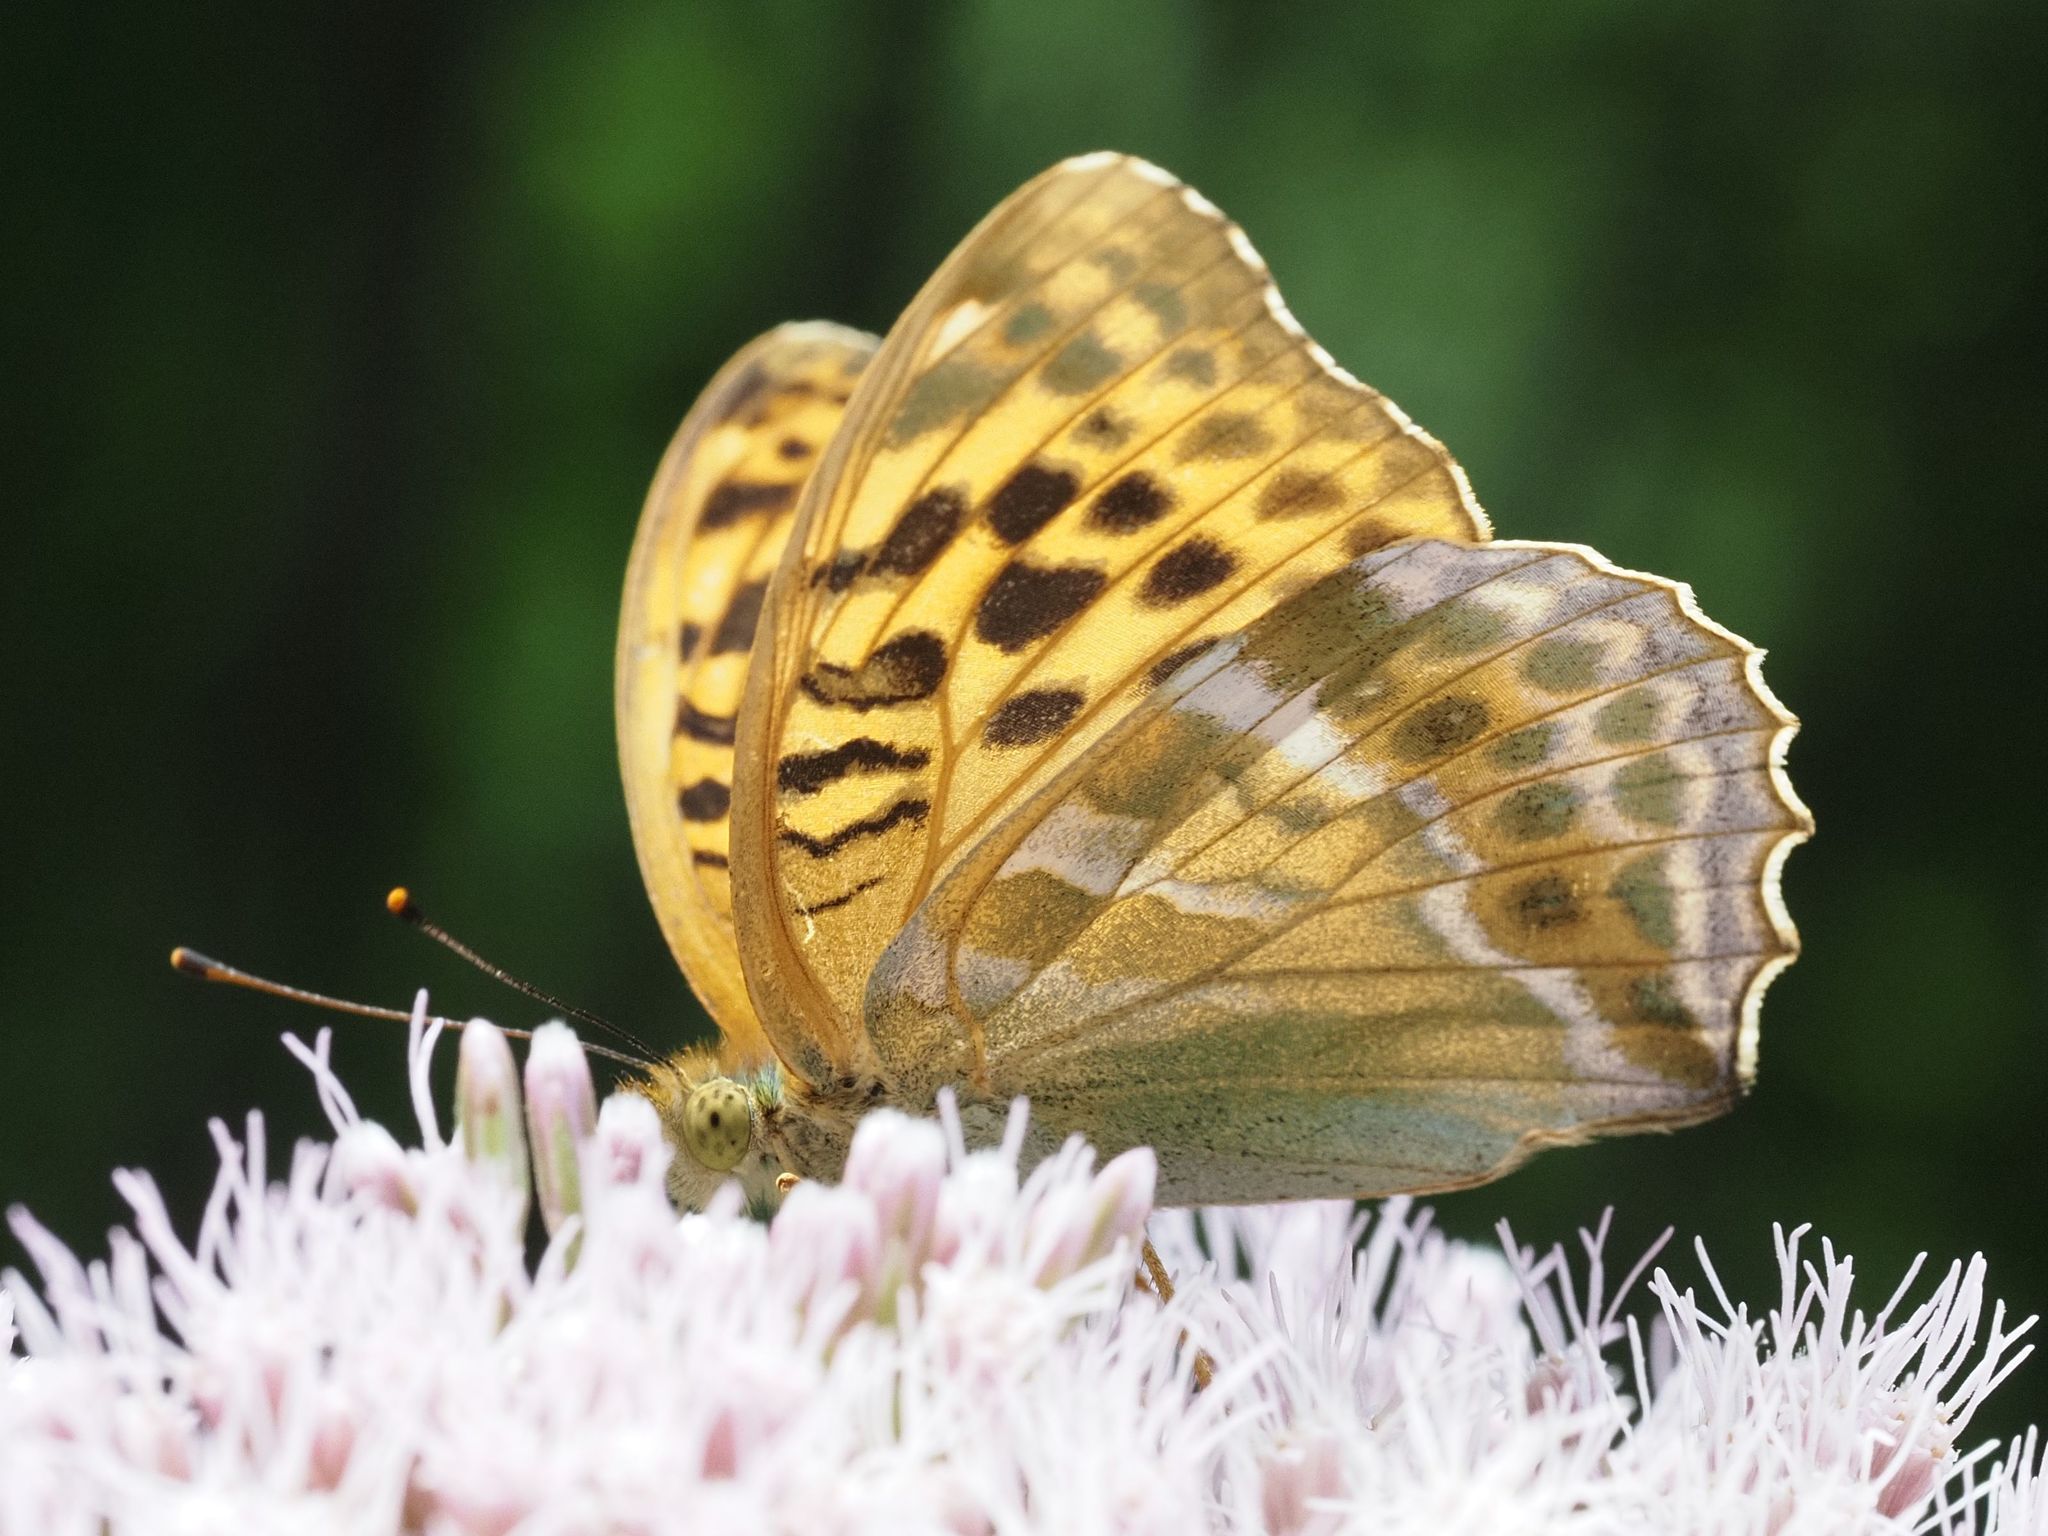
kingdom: Animalia
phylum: Arthropoda
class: Insecta
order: Lepidoptera
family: Nymphalidae
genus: Argynnis
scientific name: Argynnis paphia
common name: Silver-washed fritillary
